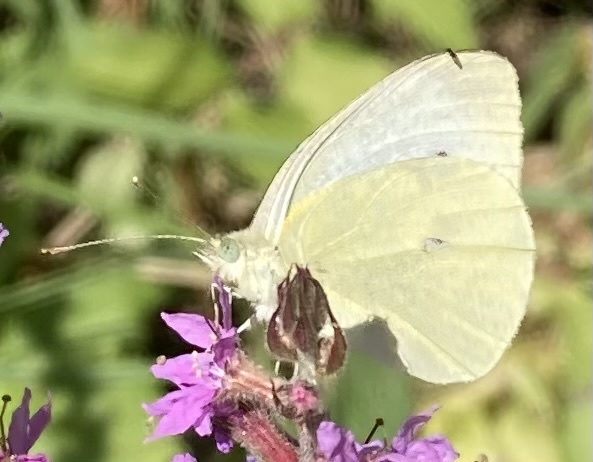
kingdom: Animalia
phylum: Arthropoda
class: Insecta
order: Lepidoptera
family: Pieridae
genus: Pieris
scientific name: Pieris rapae
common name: Small white
